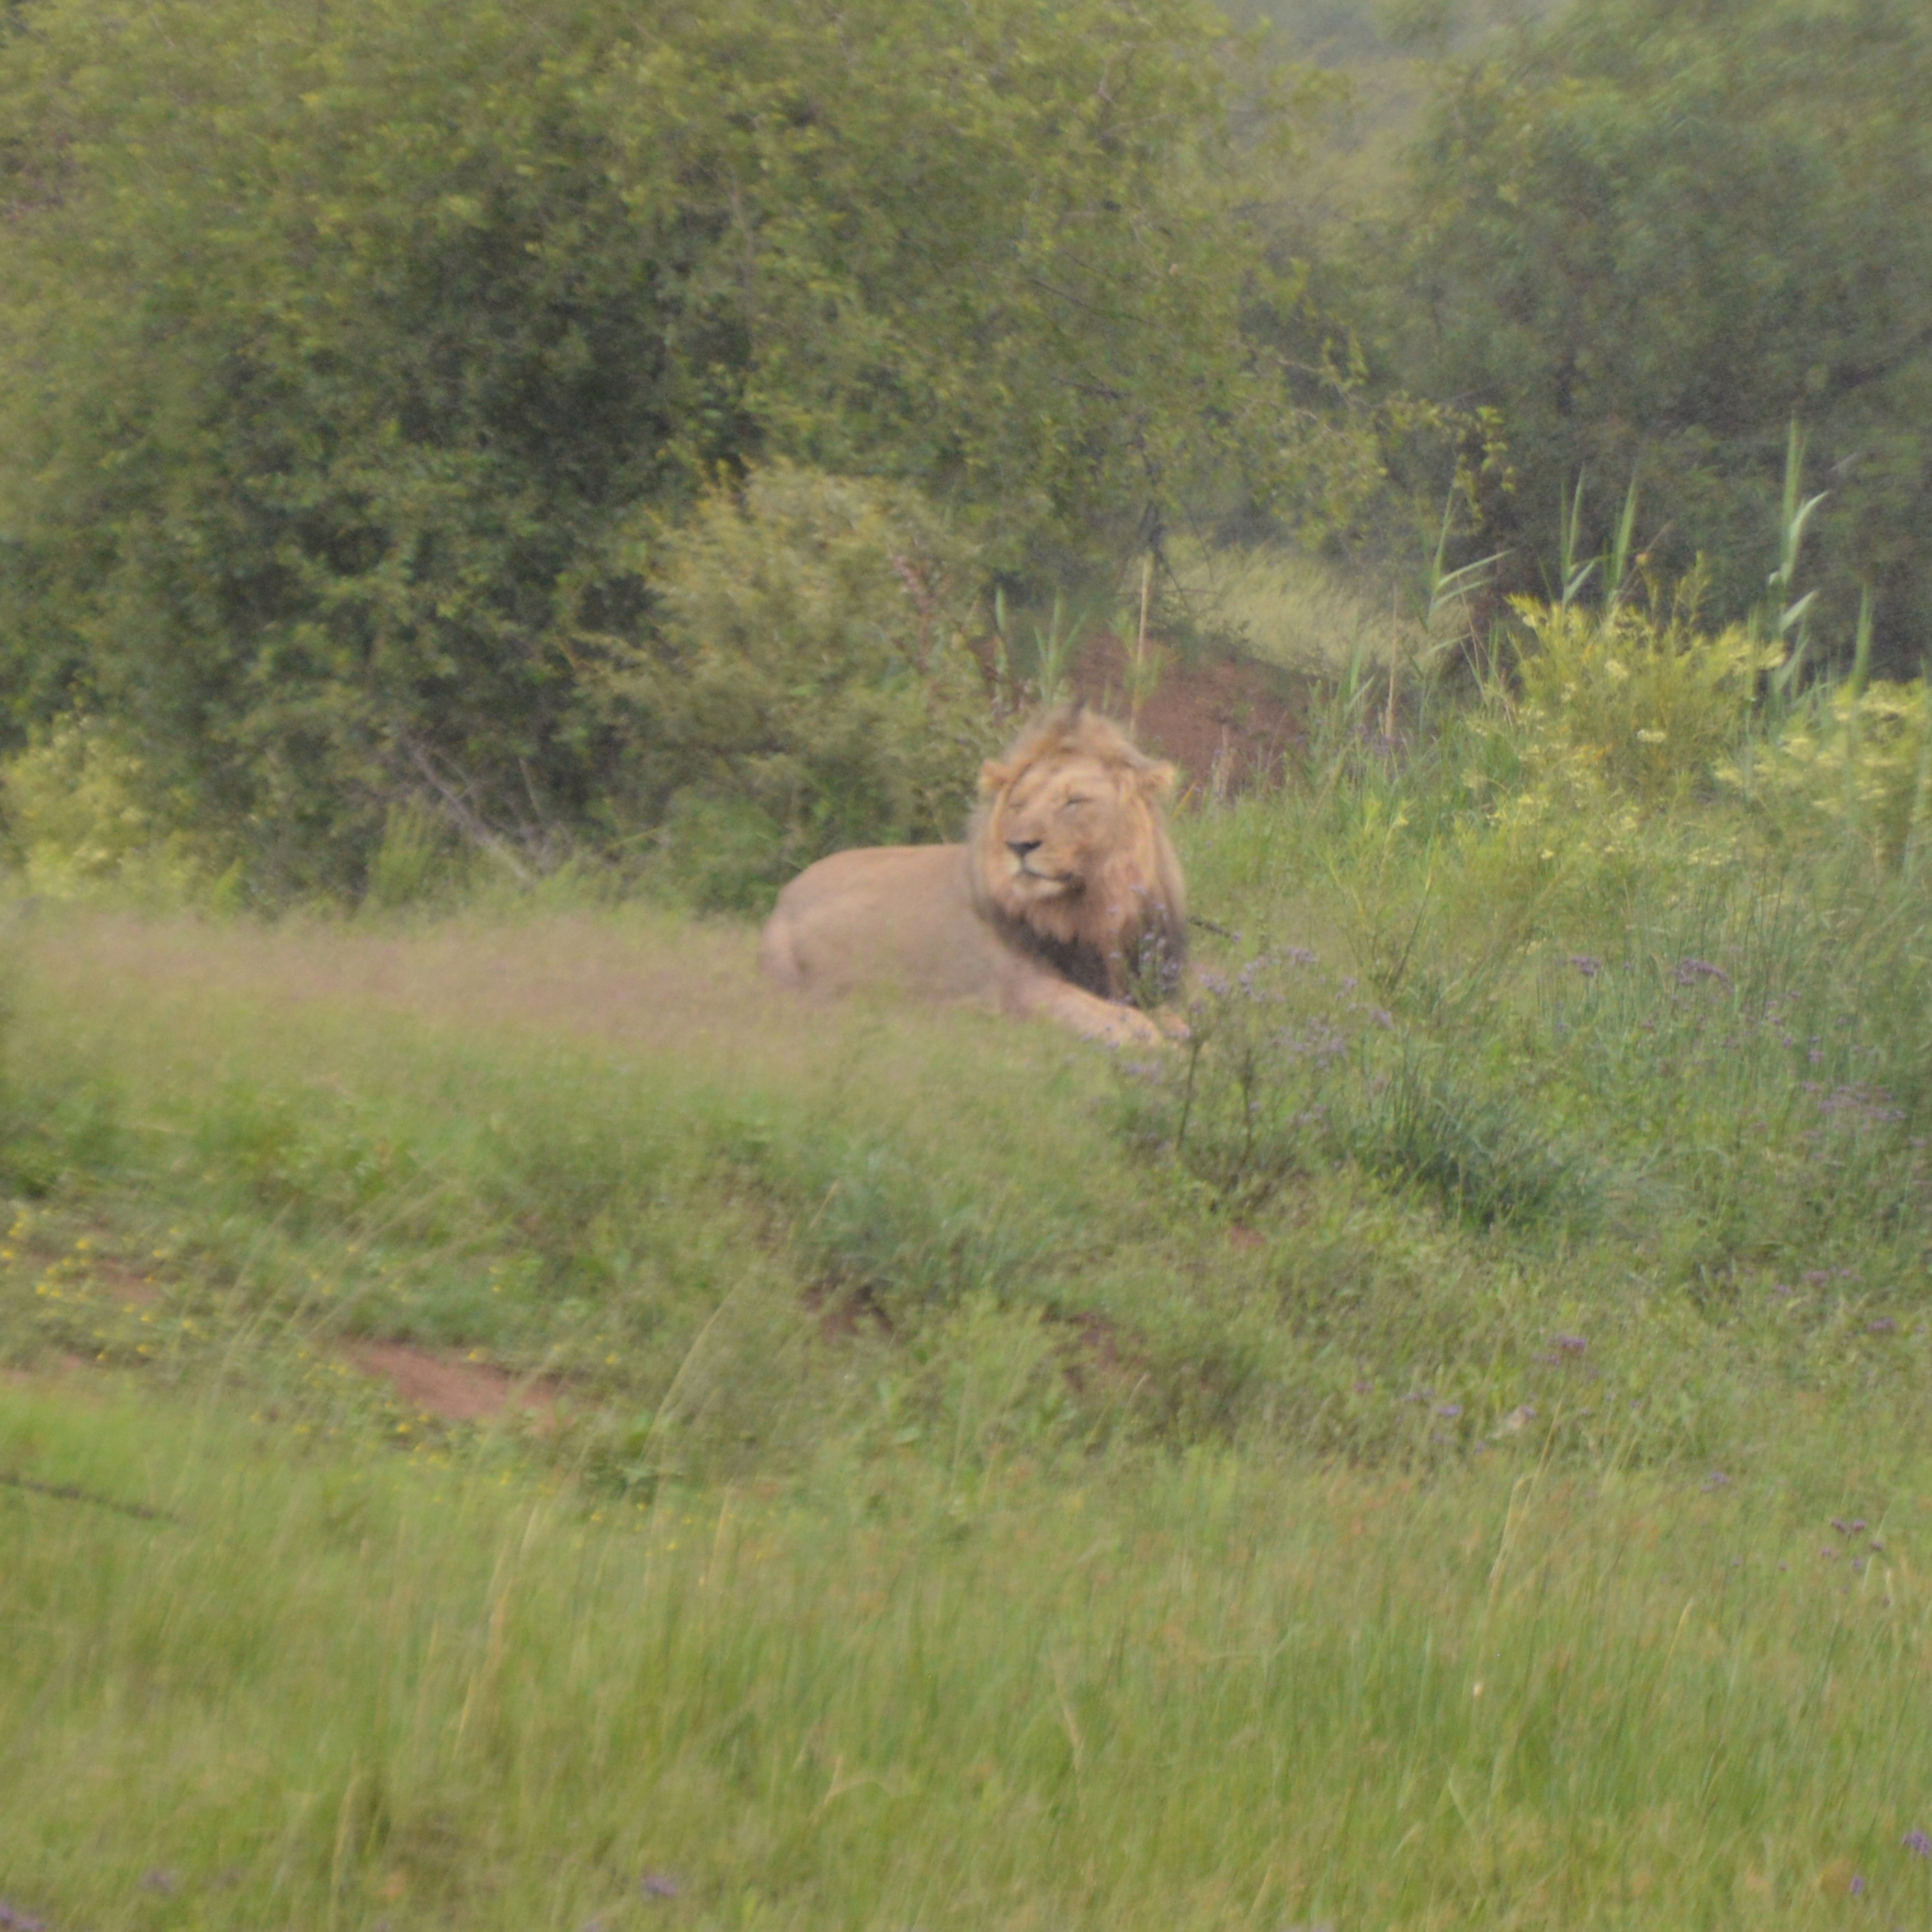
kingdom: Animalia
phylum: Chordata
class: Mammalia
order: Carnivora
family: Felidae
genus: Panthera
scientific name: Panthera leo
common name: Lion
